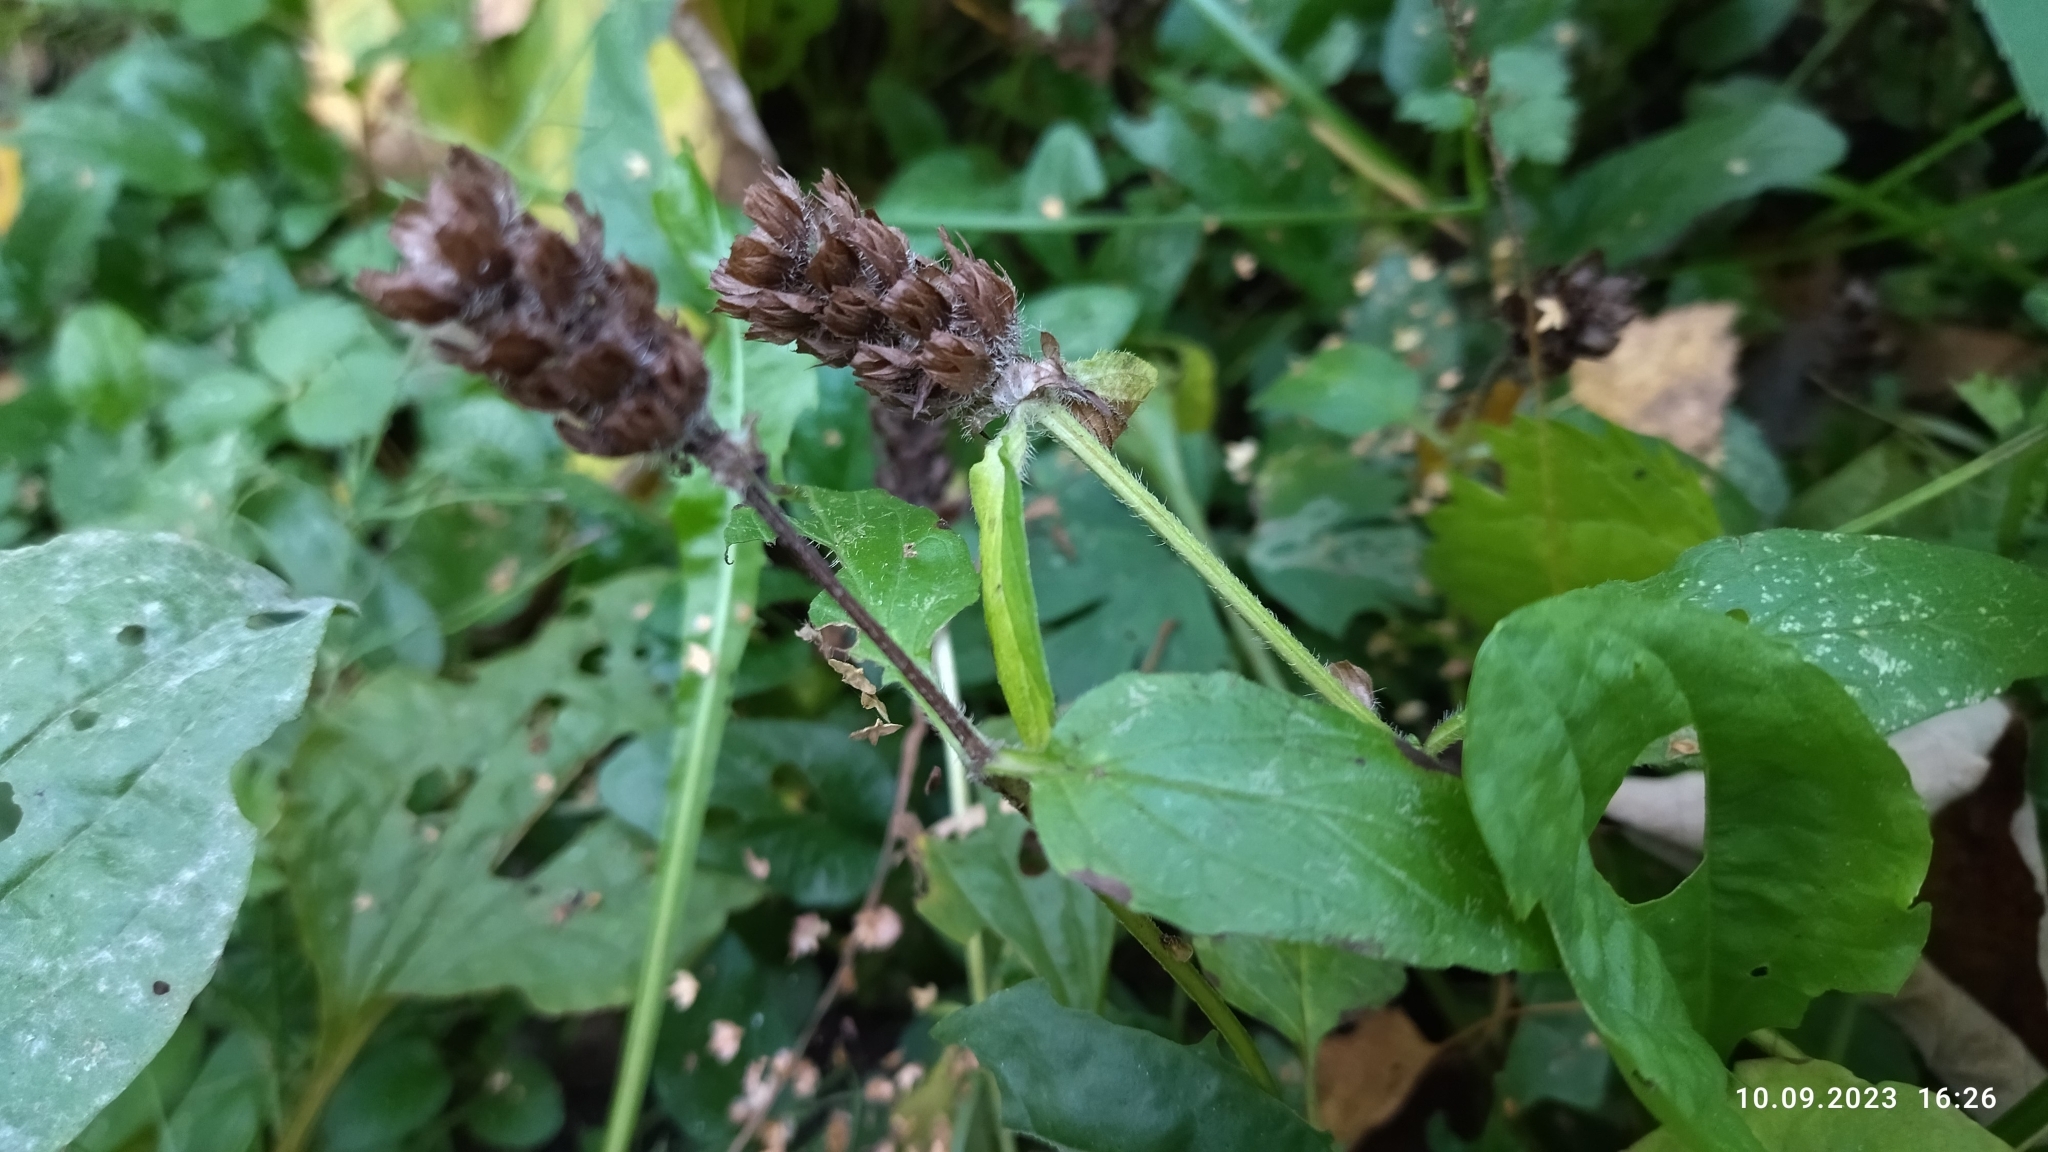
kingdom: Plantae
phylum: Tracheophyta
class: Magnoliopsida
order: Lamiales
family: Lamiaceae
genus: Prunella
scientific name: Prunella vulgaris
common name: Heal-all
